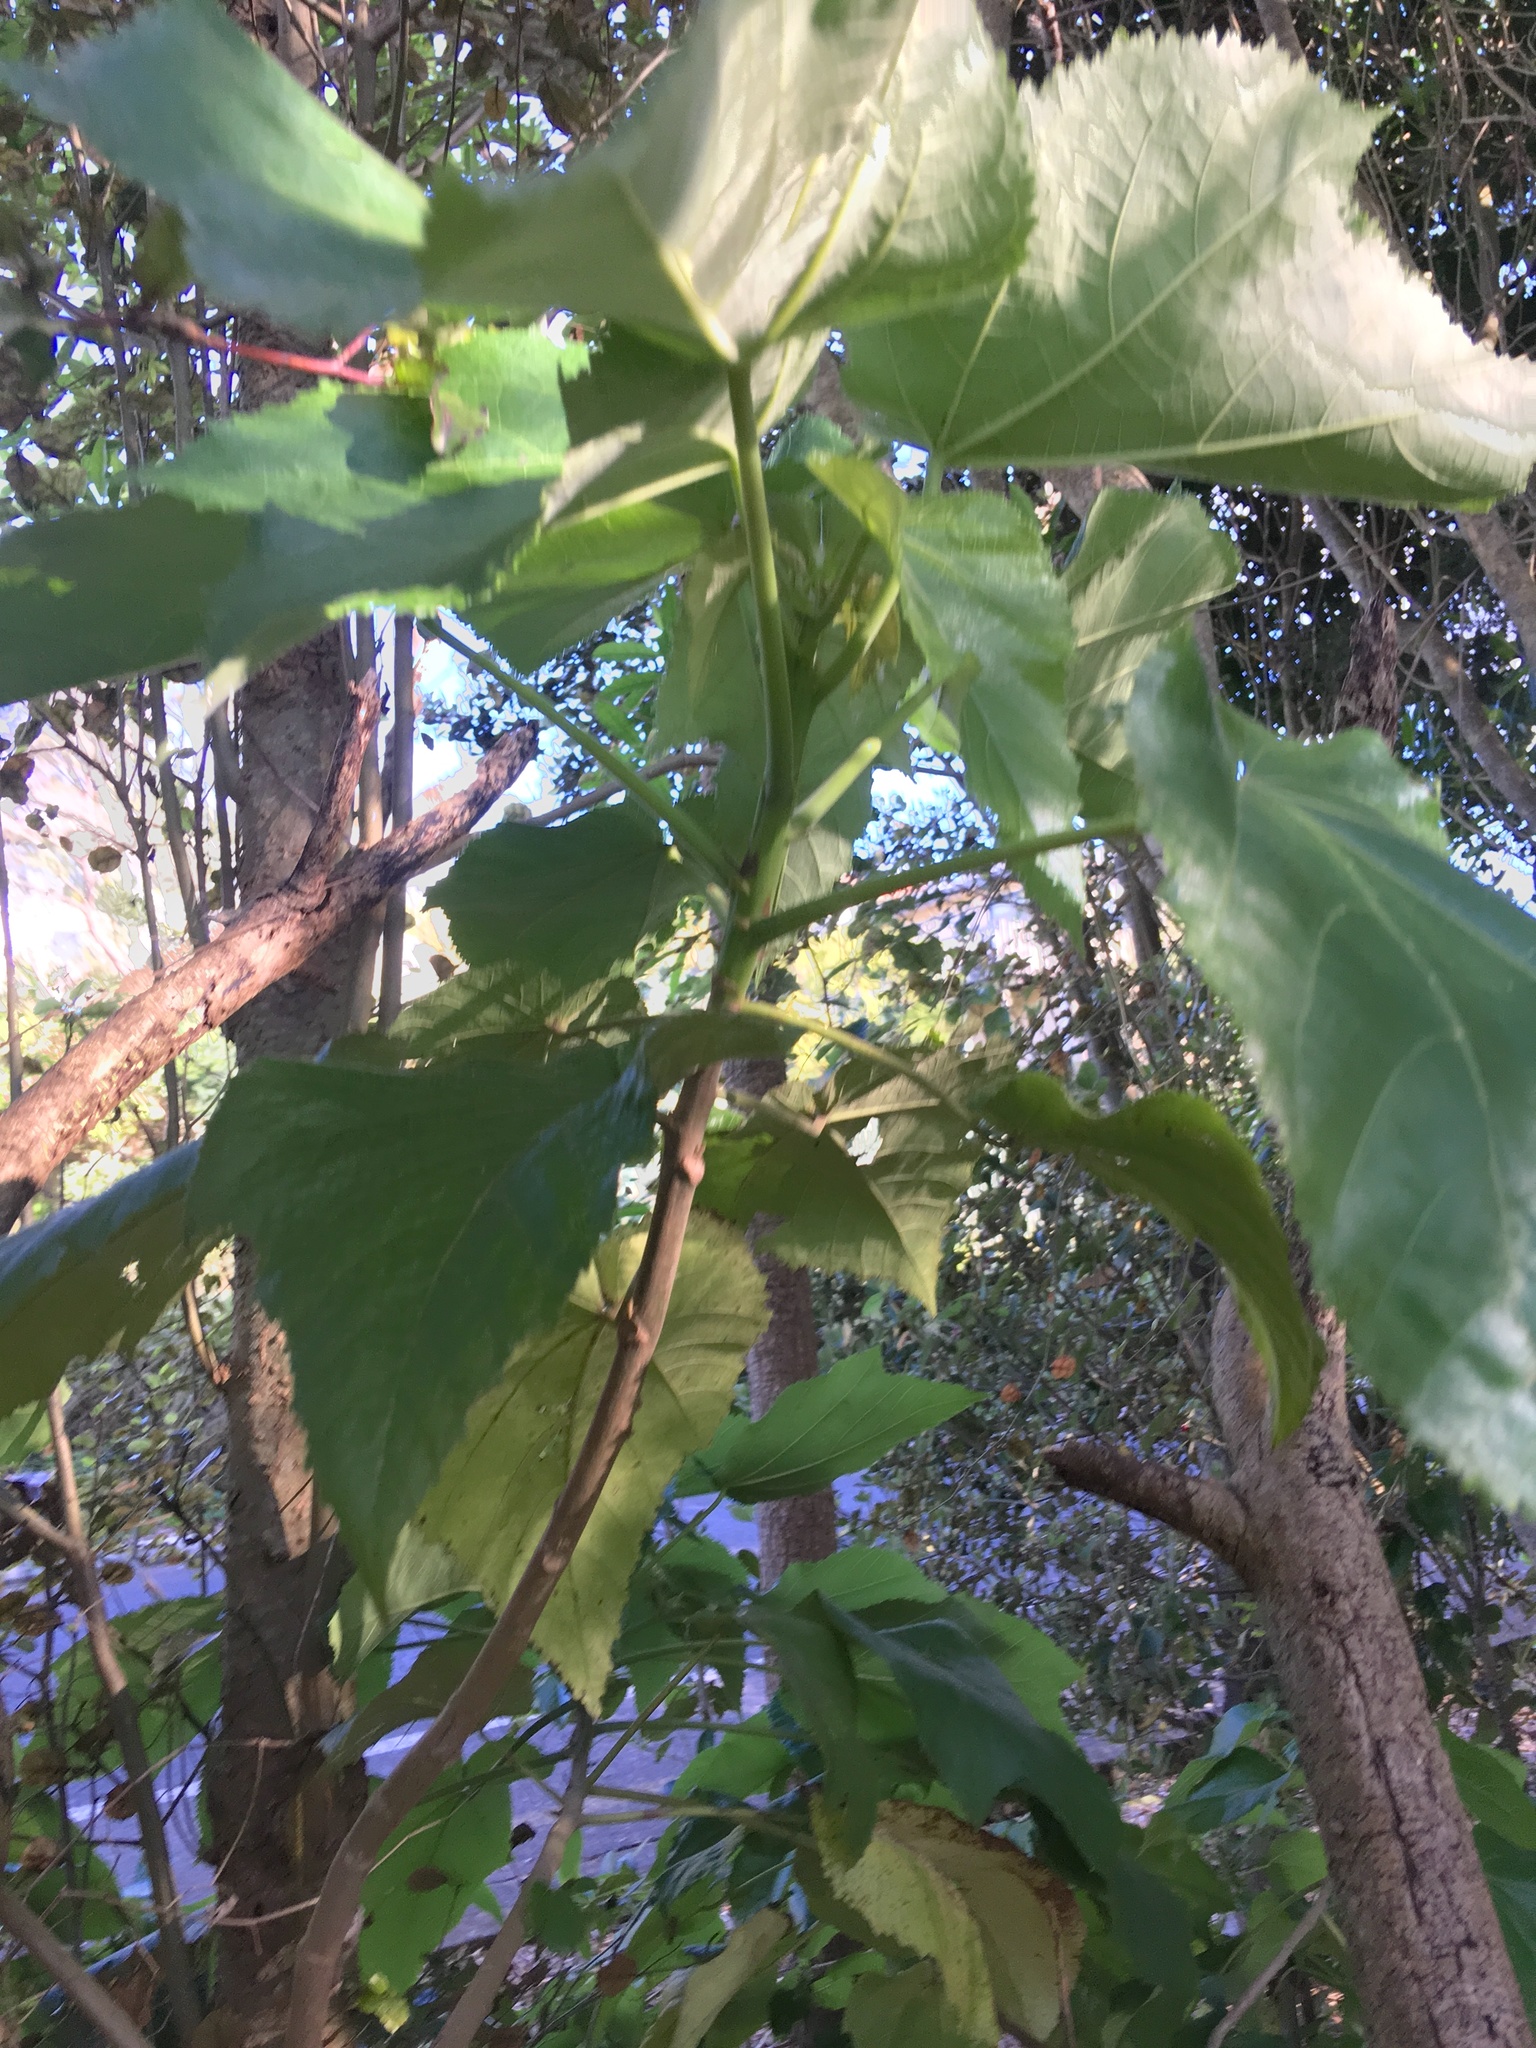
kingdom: Plantae
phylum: Tracheophyta
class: Magnoliopsida
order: Malvales
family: Malvaceae
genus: Entelea
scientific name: Entelea arborescens
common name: New zealand-mulberry
